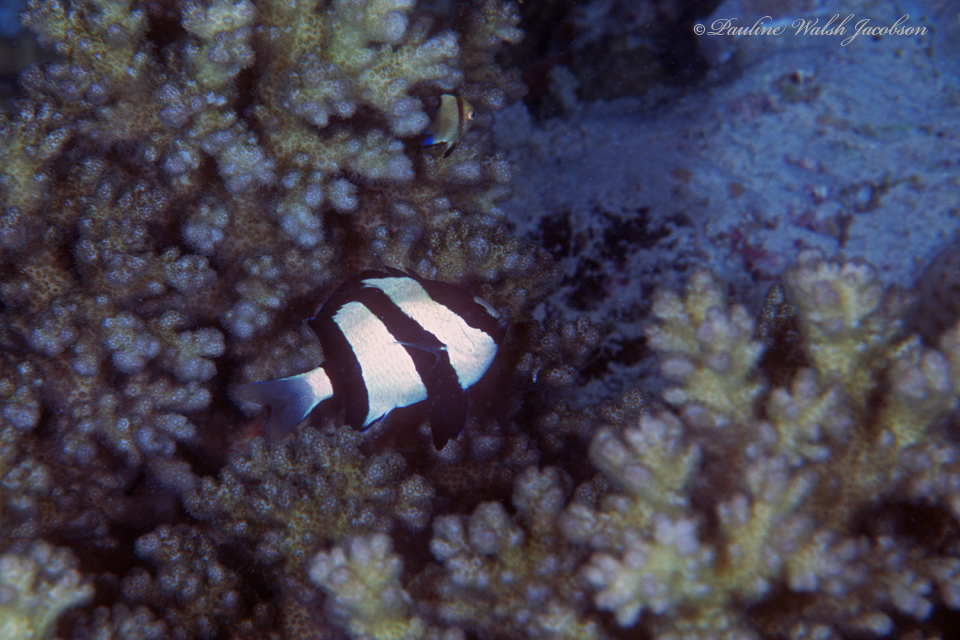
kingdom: Animalia
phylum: Chordata
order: Perciformes
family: Pomacentridae
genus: Dascyllus
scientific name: Dascyllus aruanus
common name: Humbug dascyllus
